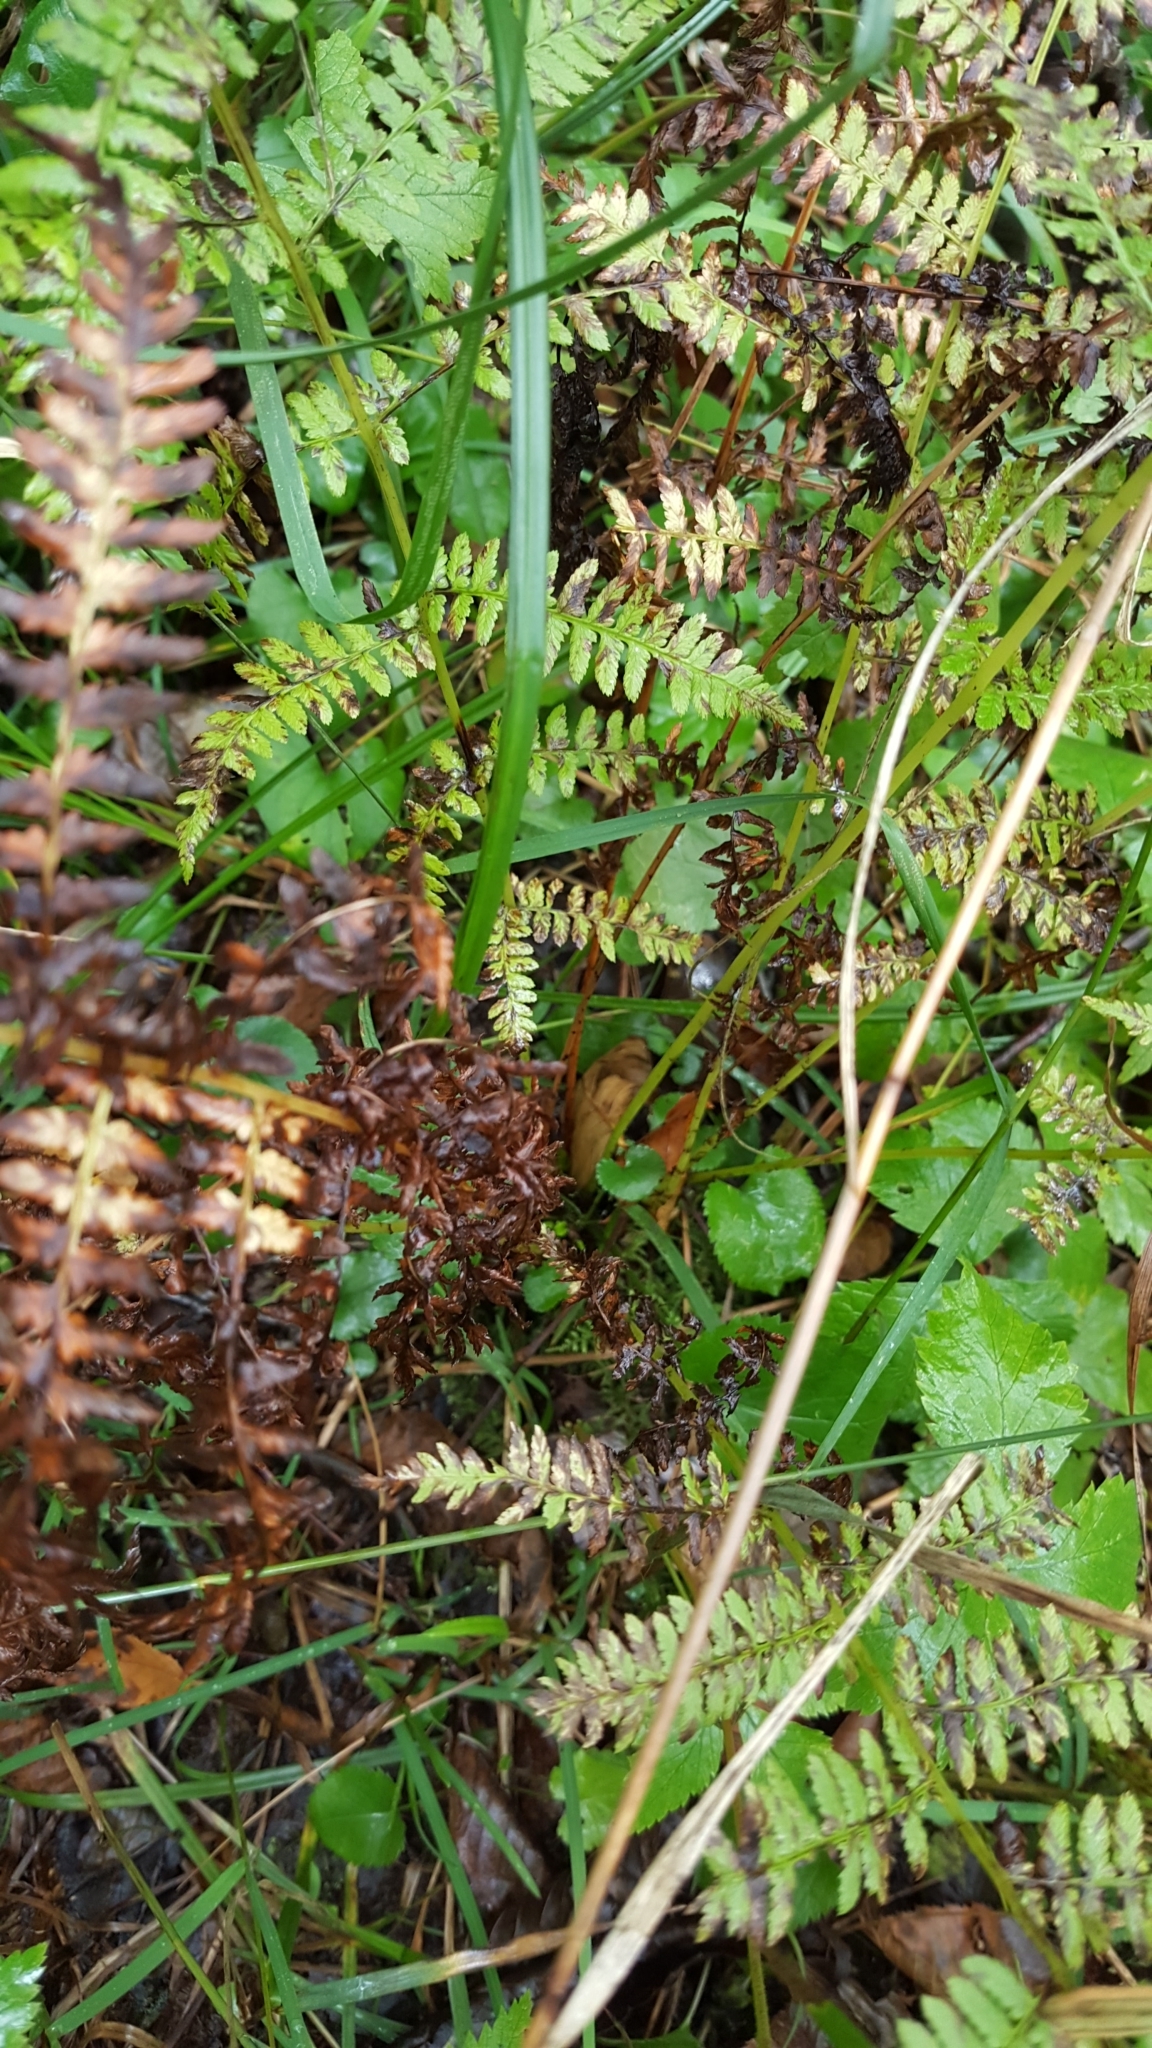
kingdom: Plantae
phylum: Tracheophyta
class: Polypodiopsida
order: Polypodiales
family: Athyriaceae
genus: Athyrium
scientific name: Athyrium angustum
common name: Northern lady fern
